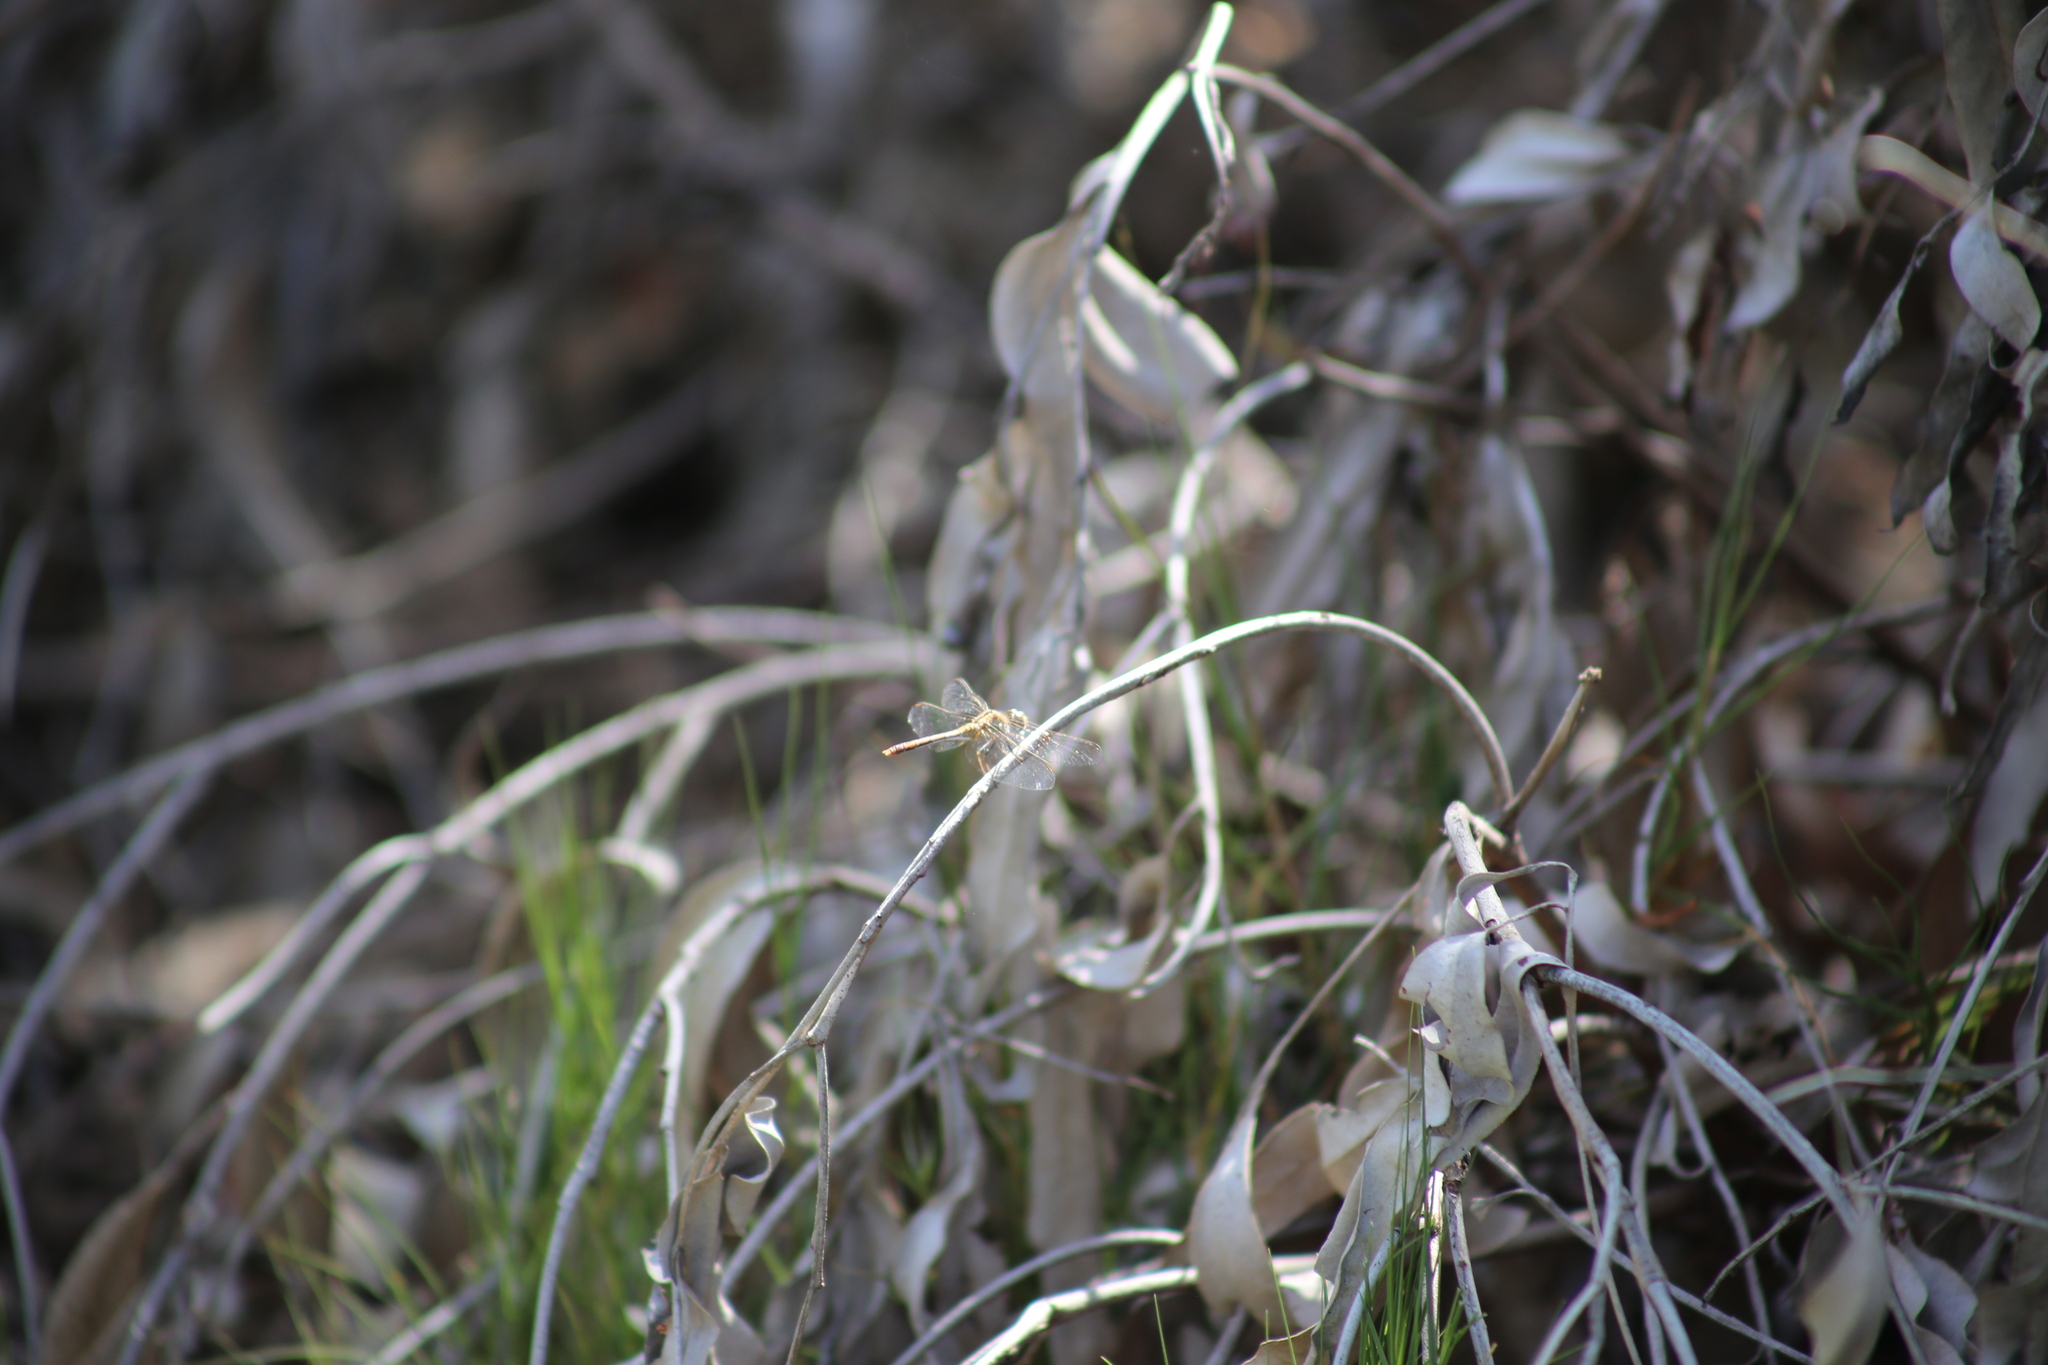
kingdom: Animalia
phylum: Arthropoda
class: Insecta
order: Odonata
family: Libellulidae
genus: Diplacodes
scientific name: Diplacodes bipunctata
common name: Red percher dragonfly
